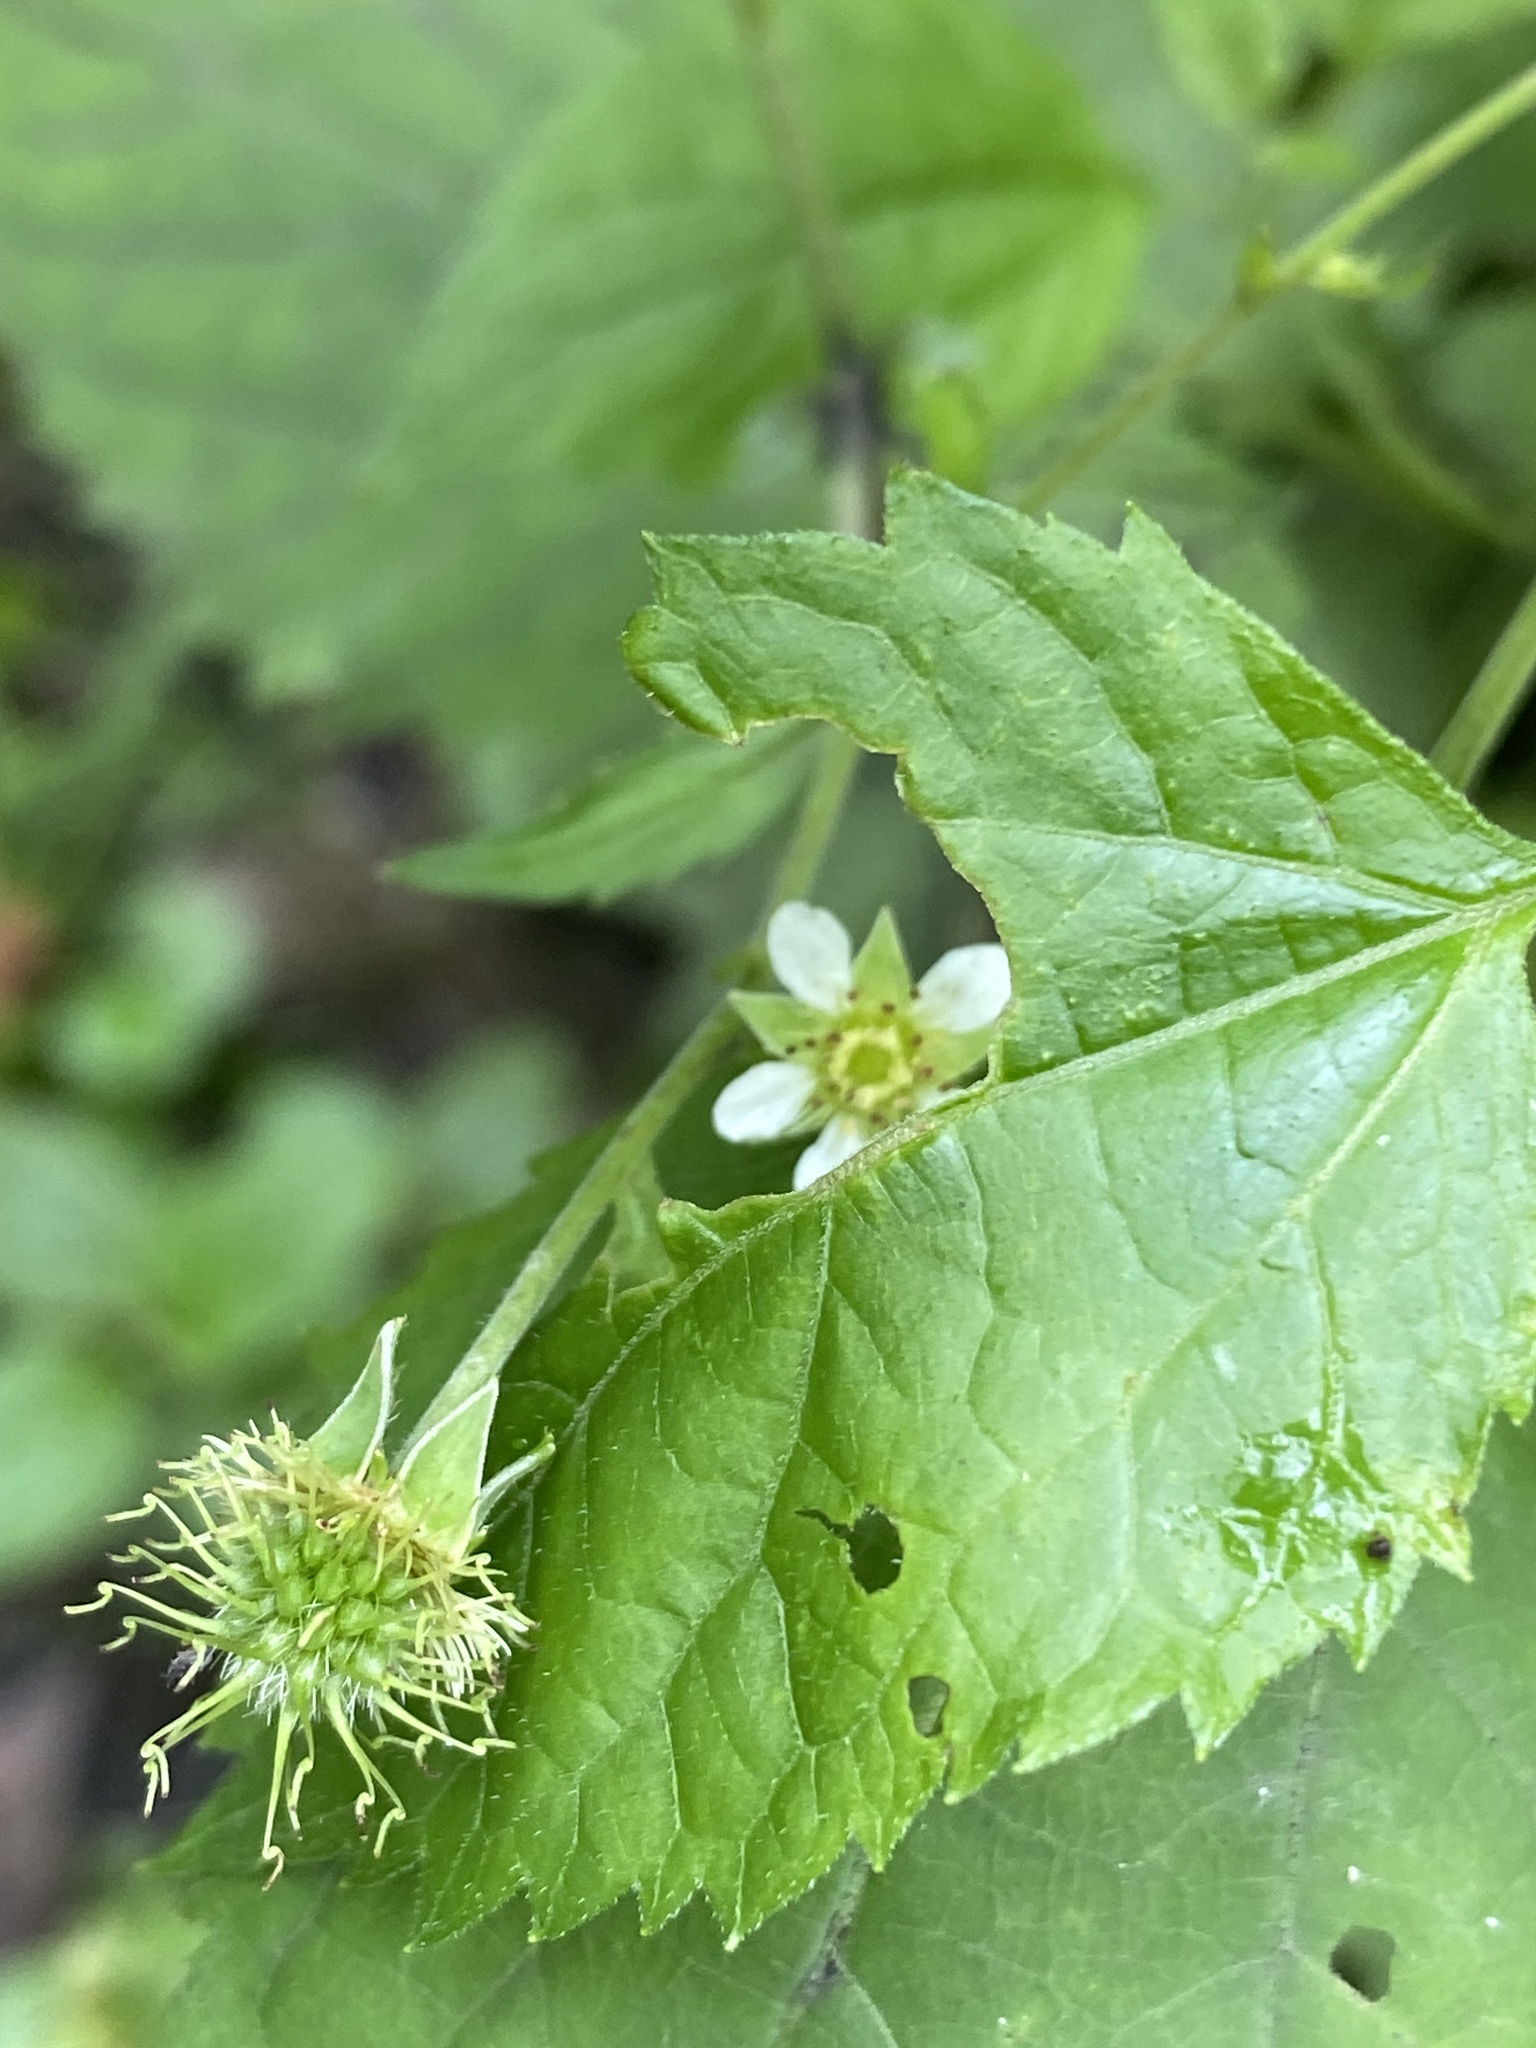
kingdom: Plantae
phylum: Tracheophyta
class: Magnoliopsida
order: Rosales
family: Rosaceae
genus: Geum
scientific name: Geum canadense
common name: White avens
